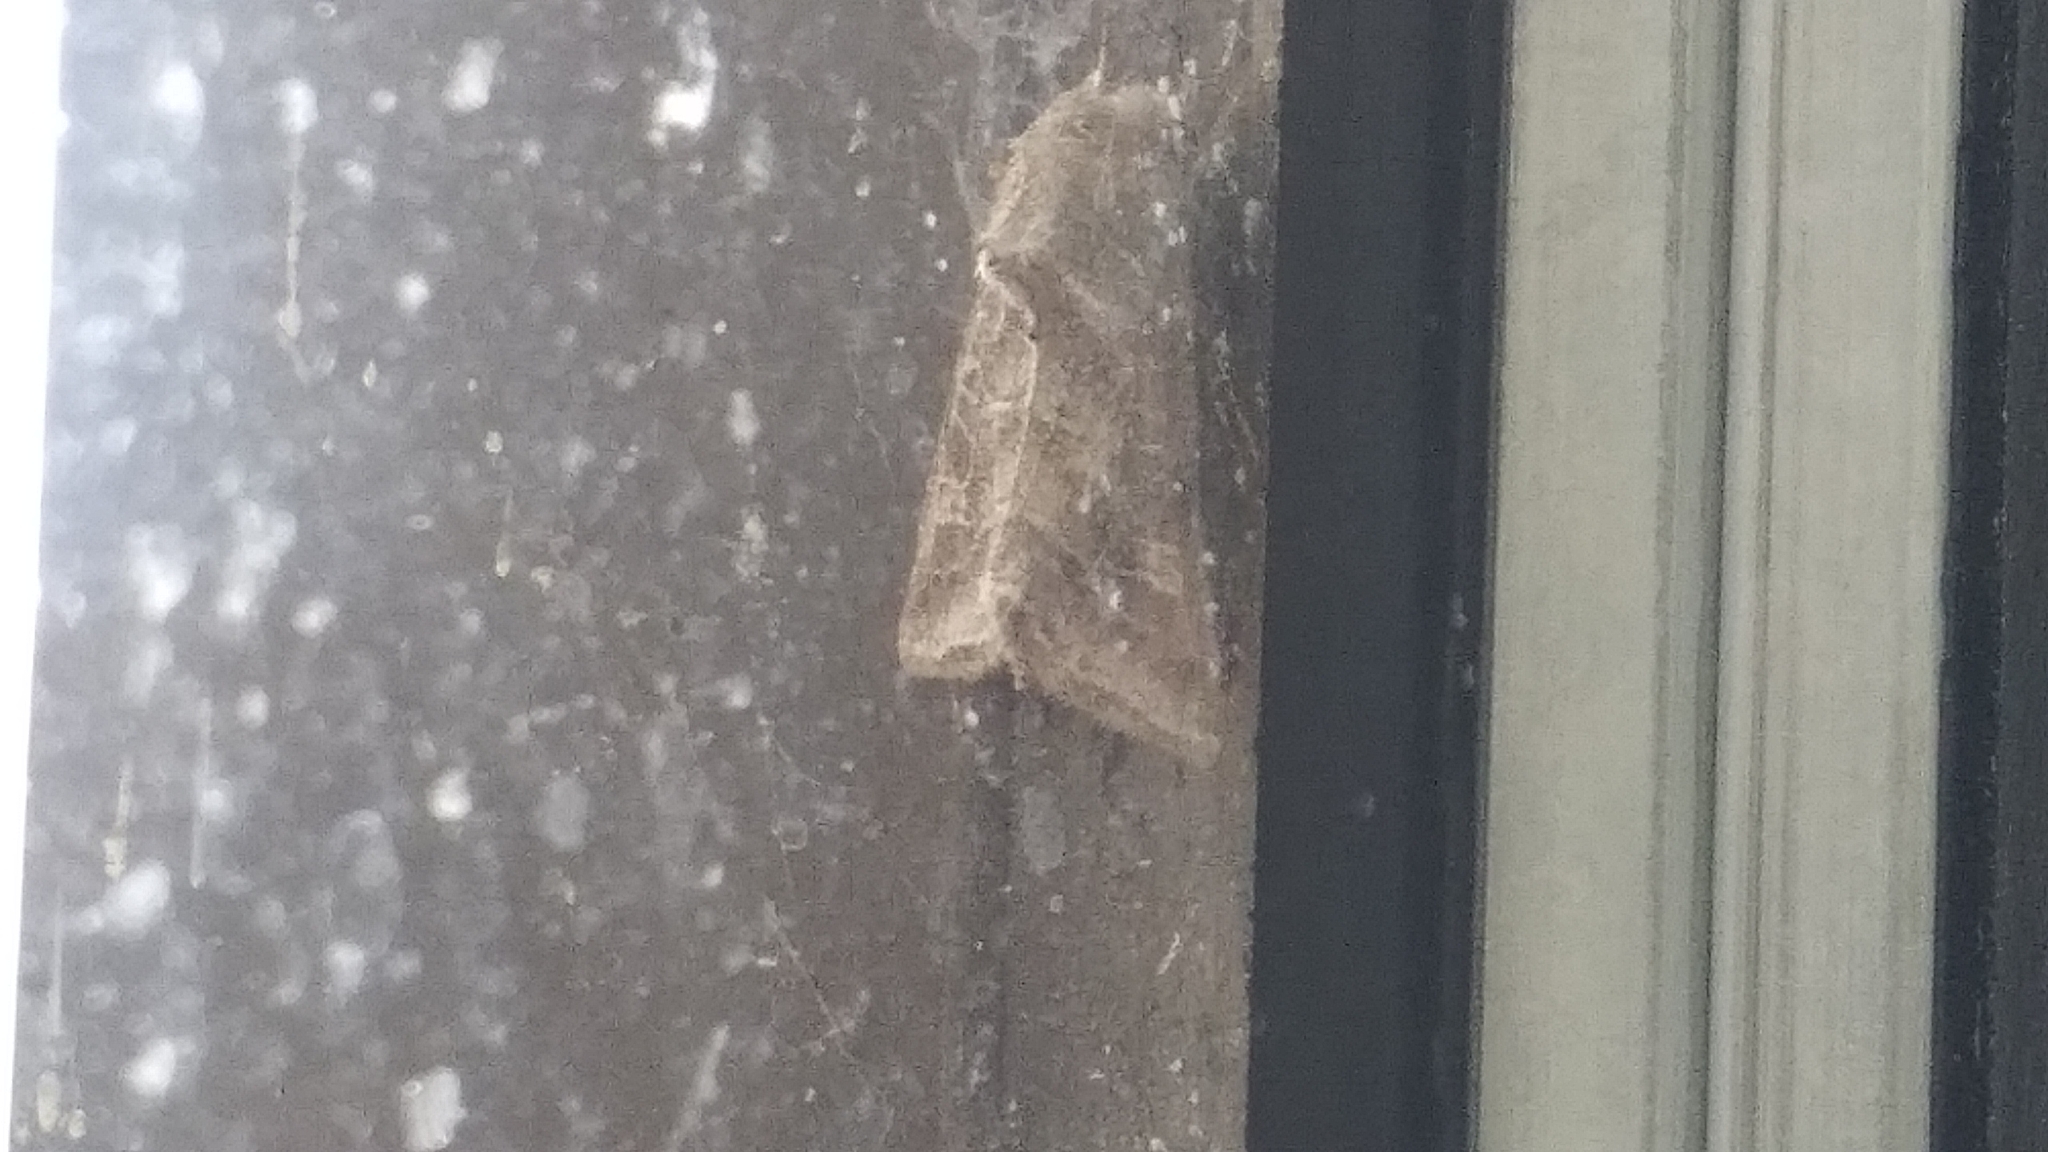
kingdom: Animalia
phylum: Arthropoda
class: Insecta
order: Lepidoptera
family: Noctuidae
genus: Lacinipolia
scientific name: Lacinipolia erecta
